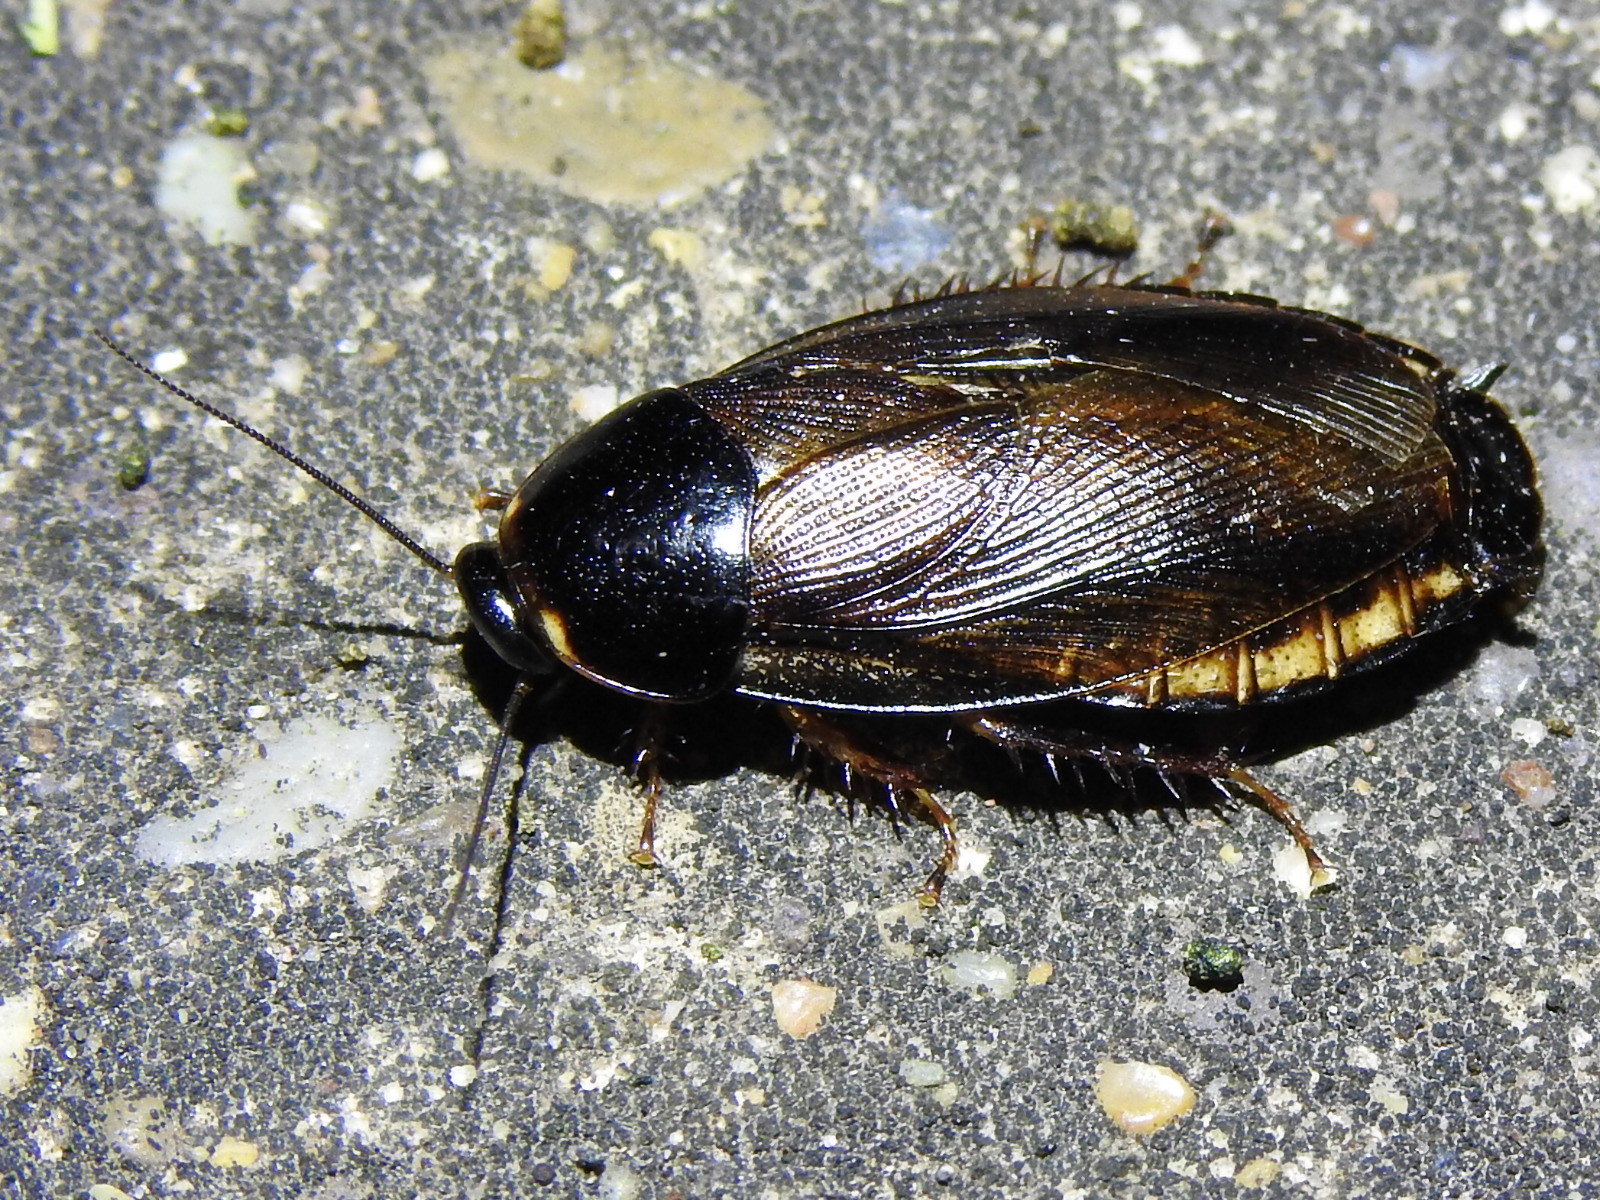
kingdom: Animalia
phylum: Arthropoda
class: Insecta
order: Blattodea
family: Blaberidae
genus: Pycnoscelus
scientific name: Pycnoscelus surinamensis
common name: Surinam cockroach
